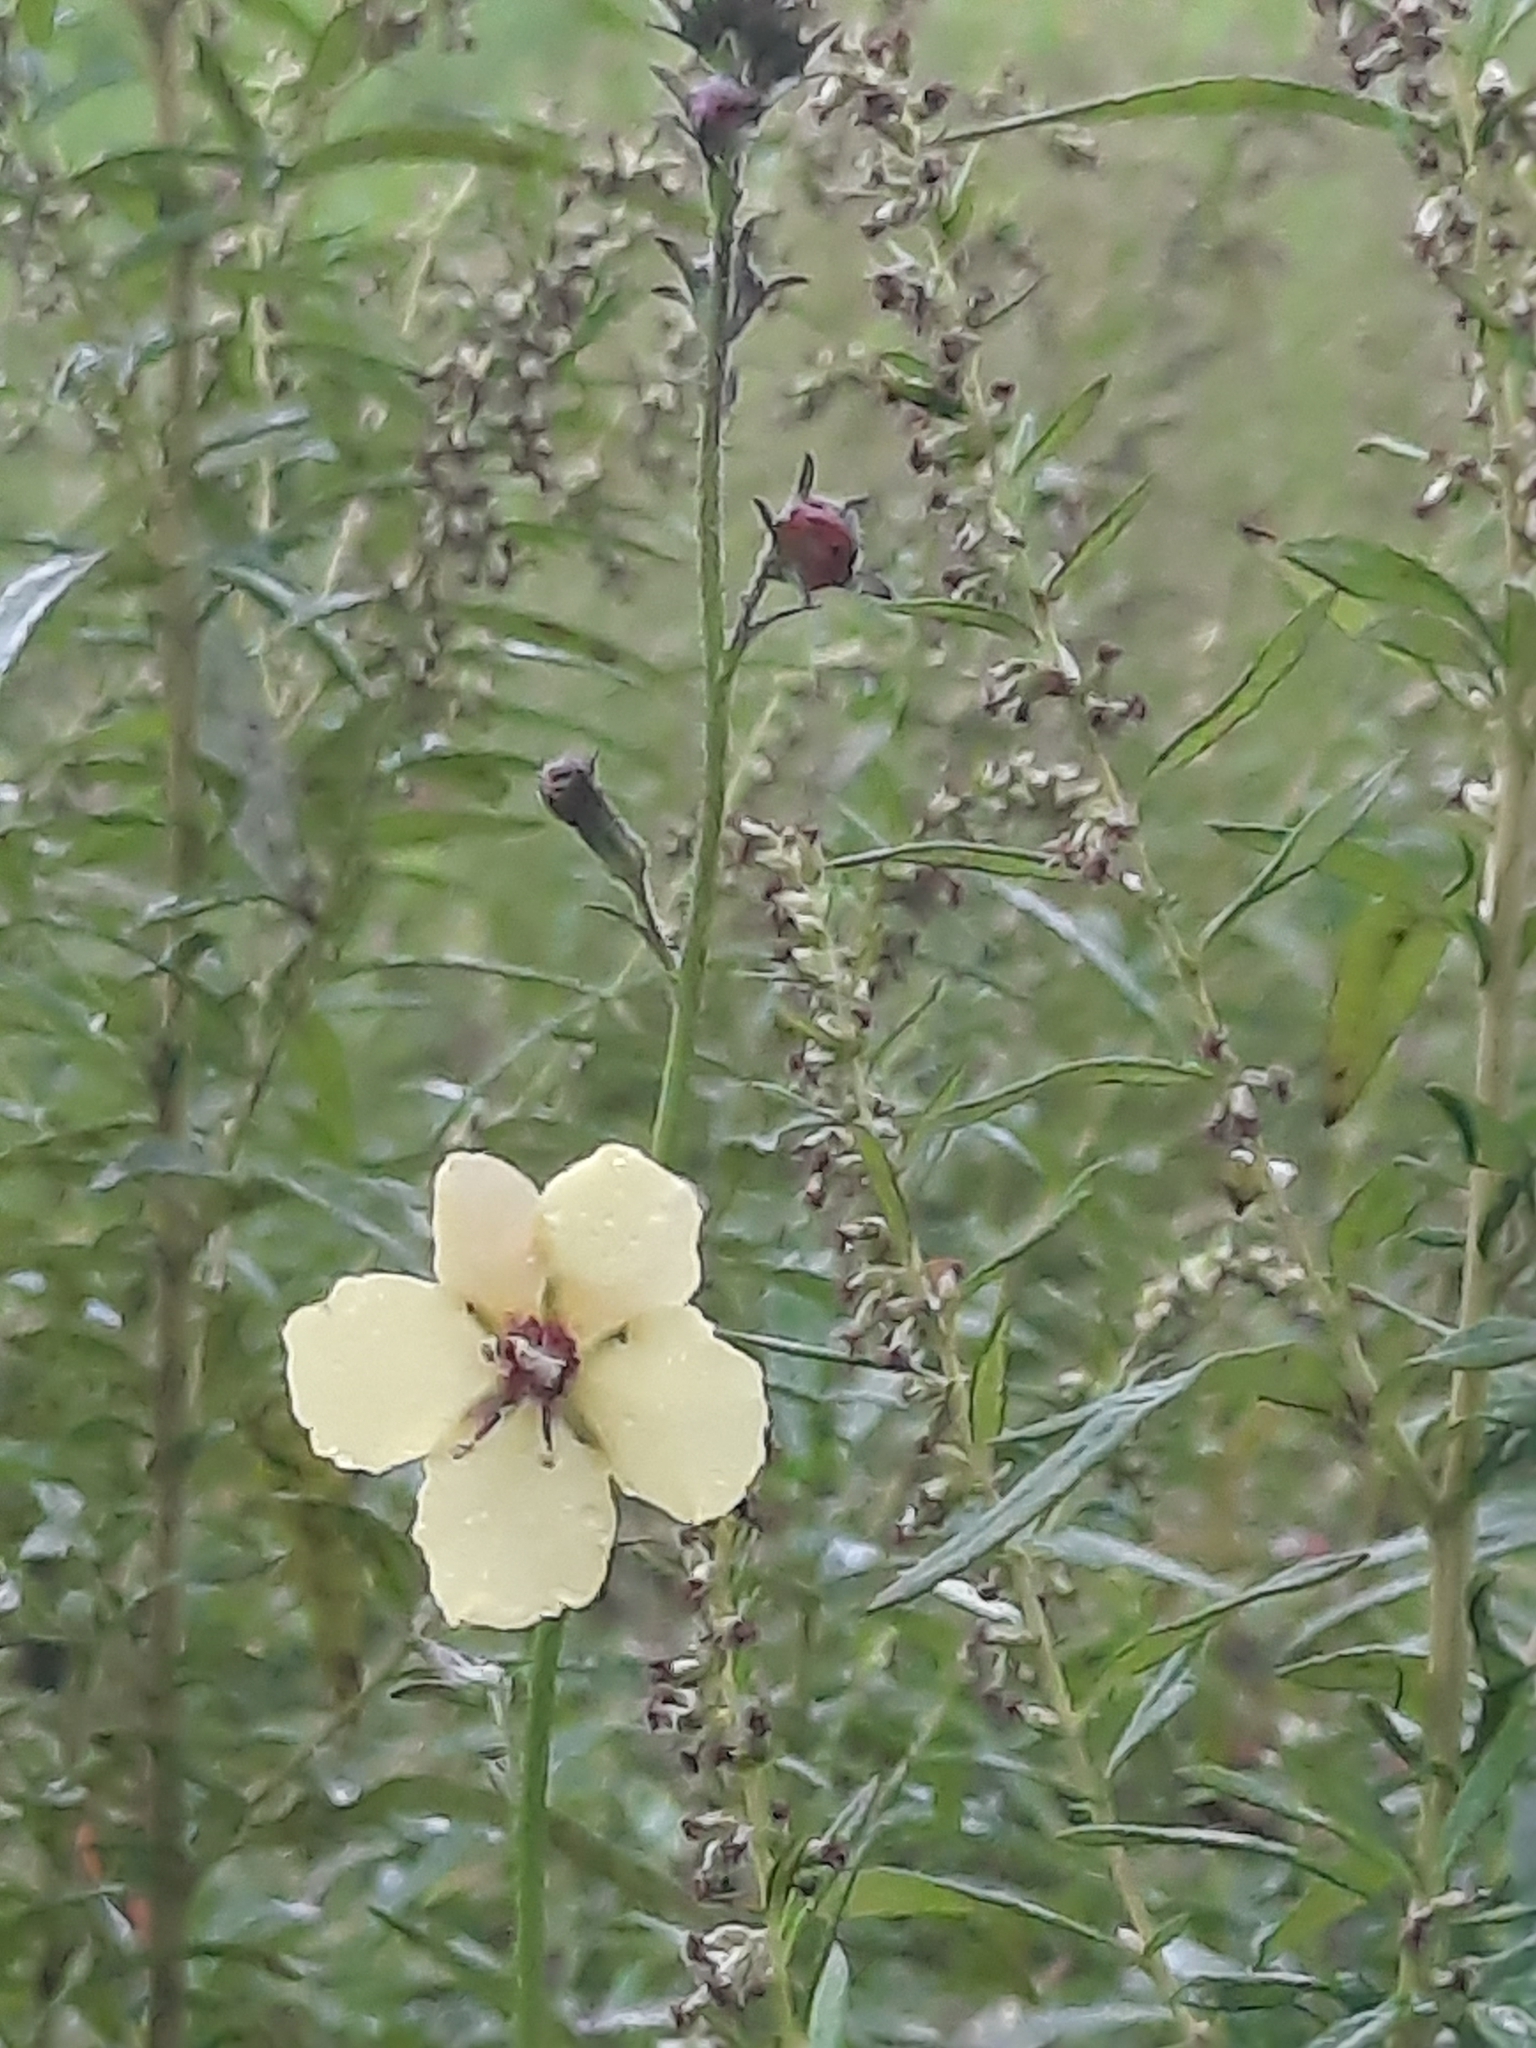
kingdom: Plantae
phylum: Tracheophyta
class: Magnoliopsida
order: Lamiales
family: Scrophulariaceae
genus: Verbascum
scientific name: Verbascum blattaria
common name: Moth mullein
